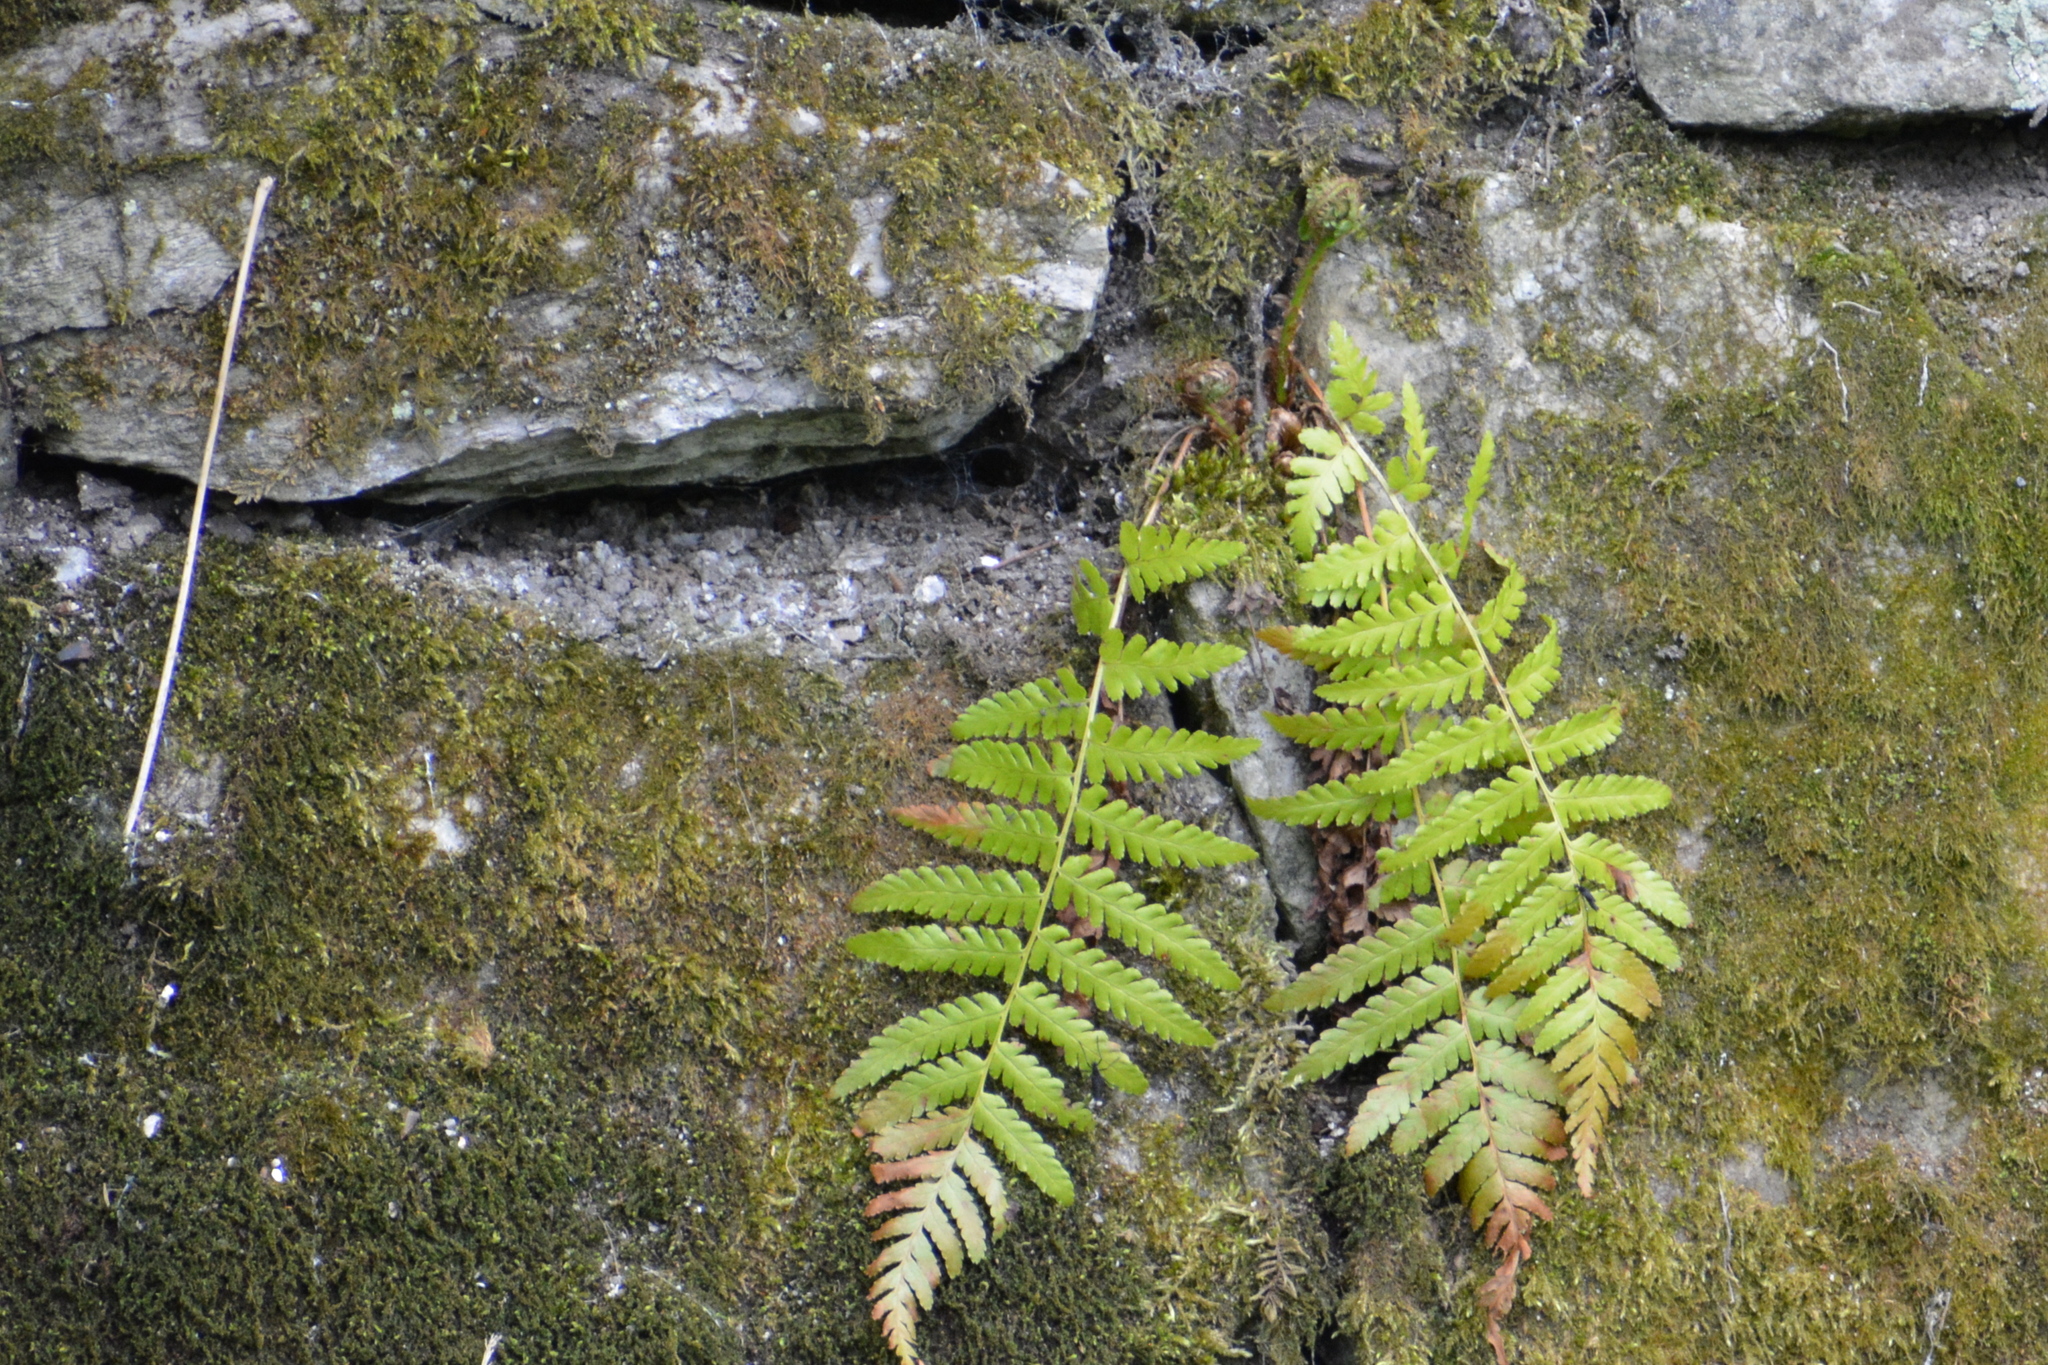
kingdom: Plantae
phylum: Tracheophyta
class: Polypodiopsida
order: Polypodiales
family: Dryopteridaceae
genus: Dryopteris
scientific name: Dryopteris filix-mas
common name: Male fern
